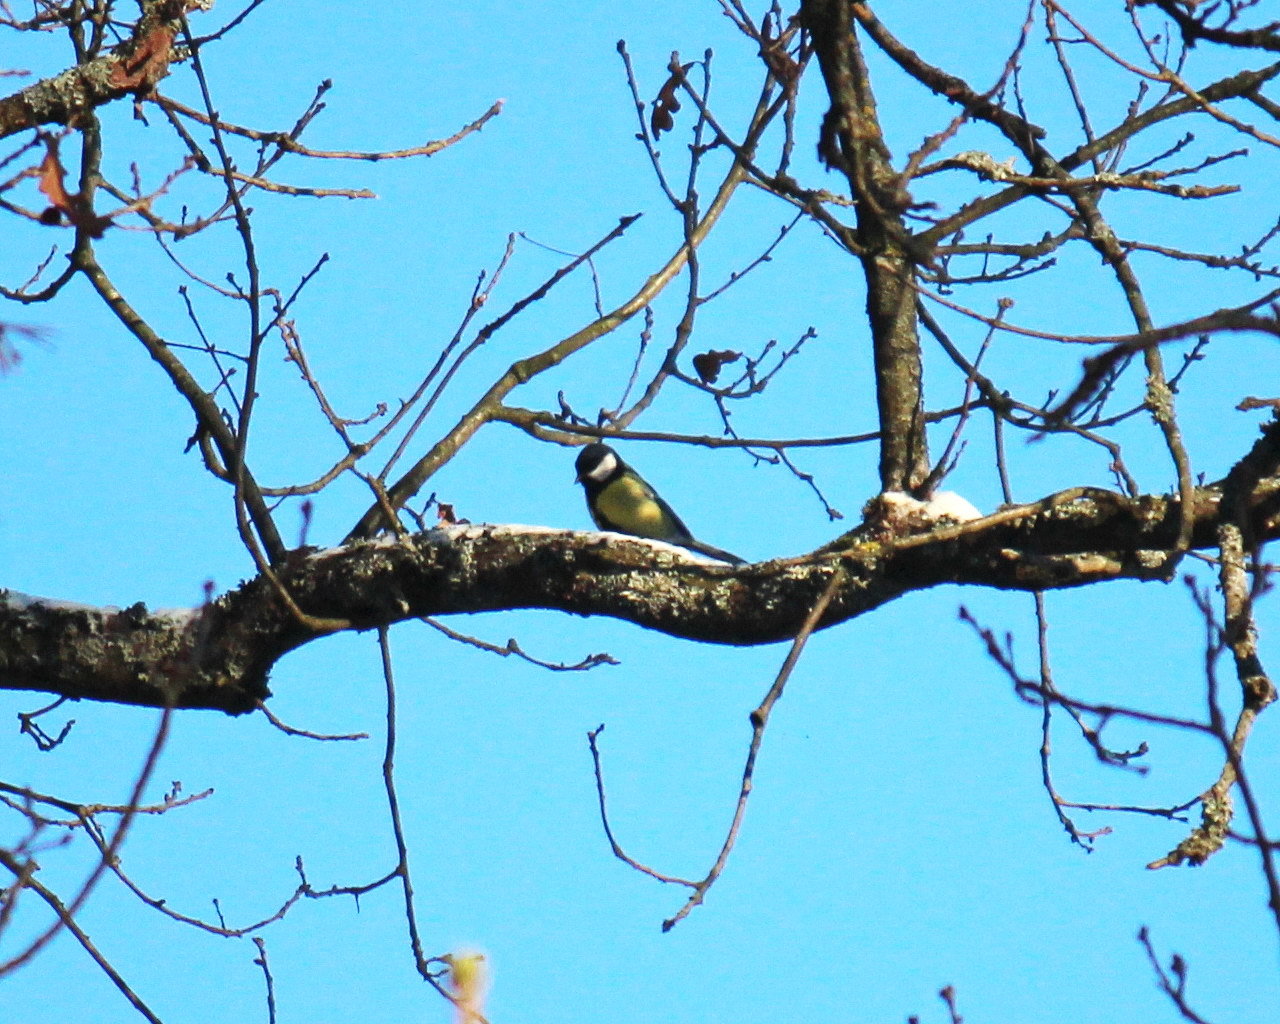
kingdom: Animalia
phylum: Chordata
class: Aves
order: Passeriformes
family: Paridae
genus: Parus
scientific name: Parus major
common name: Great tit
